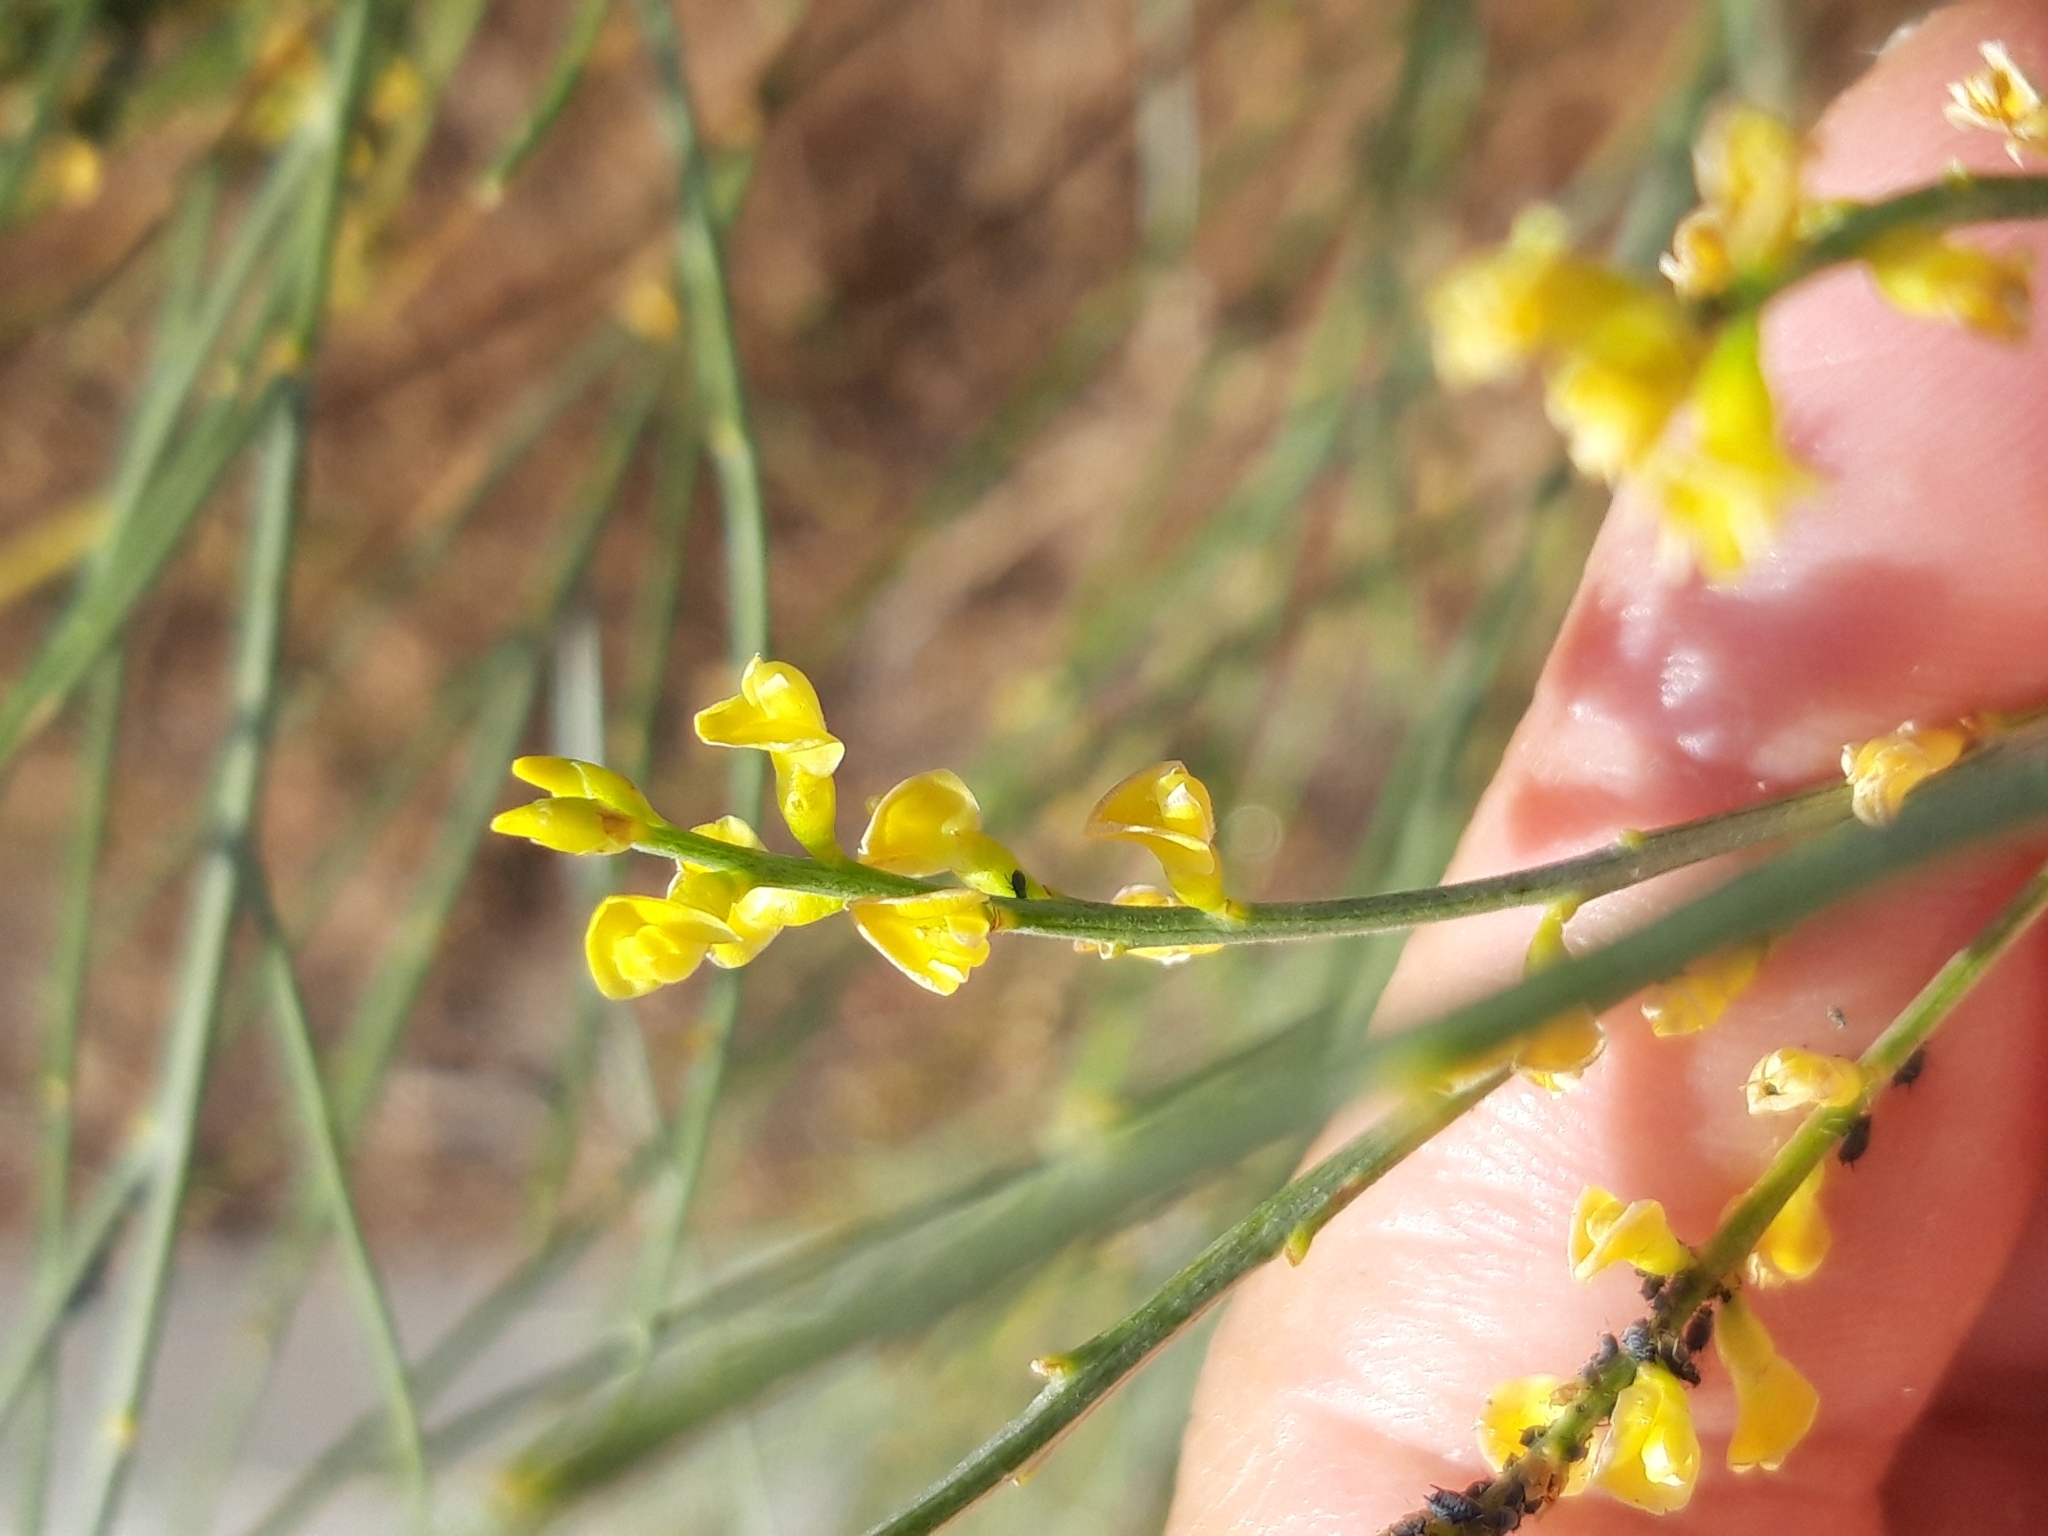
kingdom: Plantae
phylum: Tracheophyta
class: Magnoliopsida
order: Fabales
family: Fabaceae
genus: Retama
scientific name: Retama sphaerocarpa
